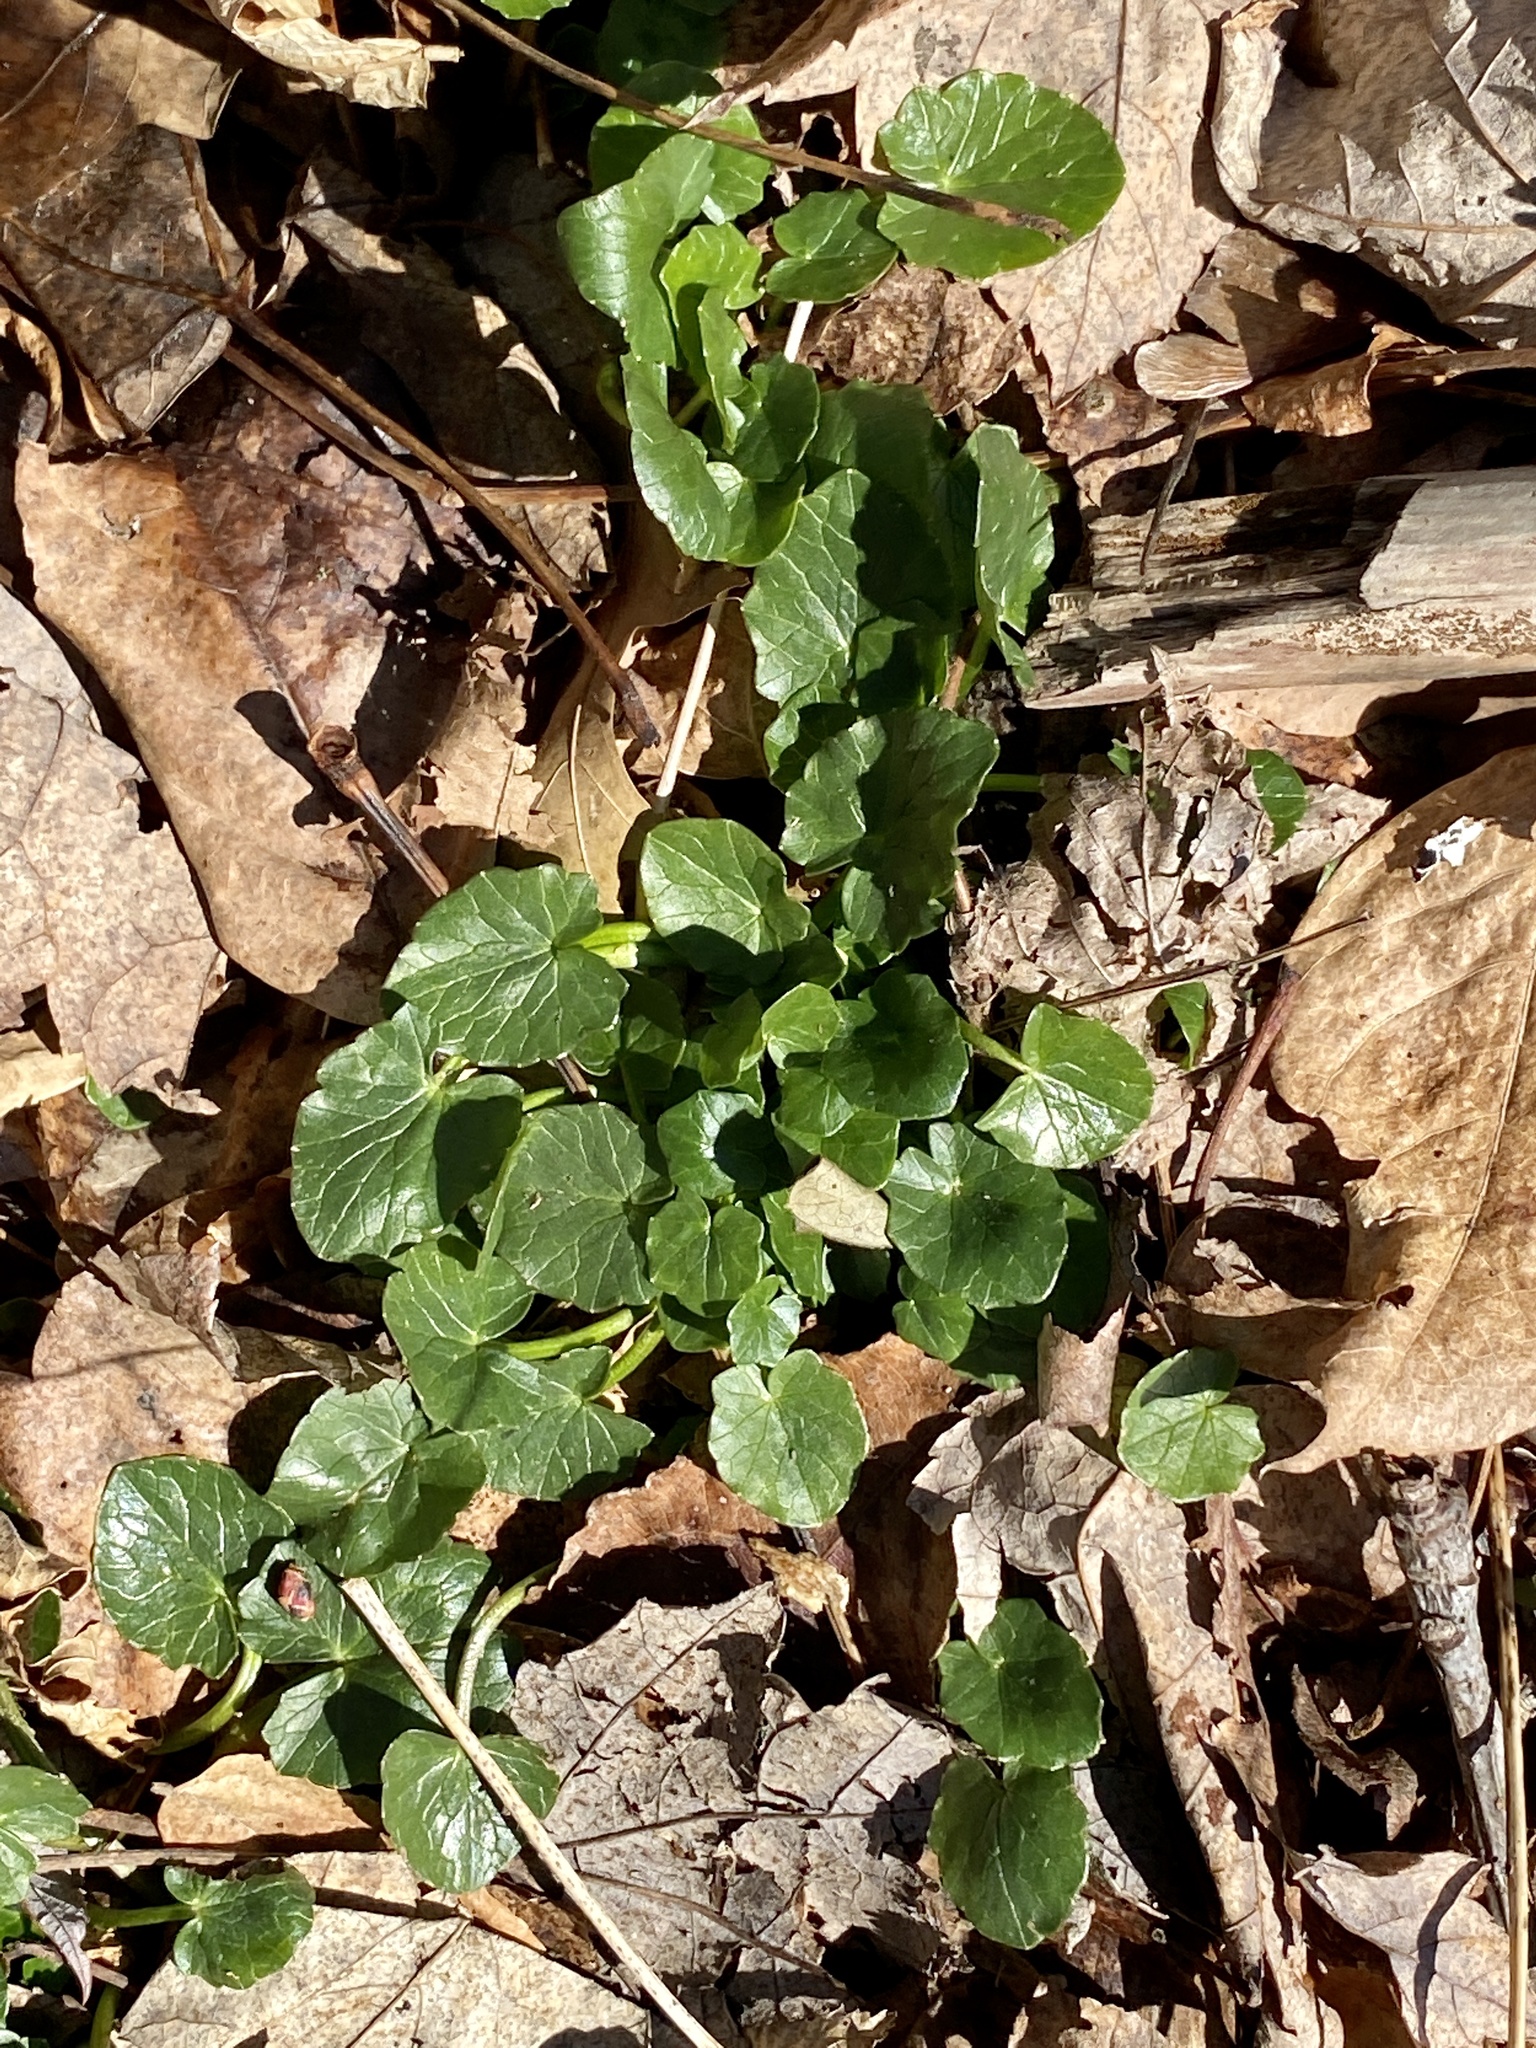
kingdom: Plantae
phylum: Tracheophyta
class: Magnoliopsida
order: Ranunculales
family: Ranunculaceae
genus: Ficaria
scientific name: Ficaria verna
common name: Lesser celandine
